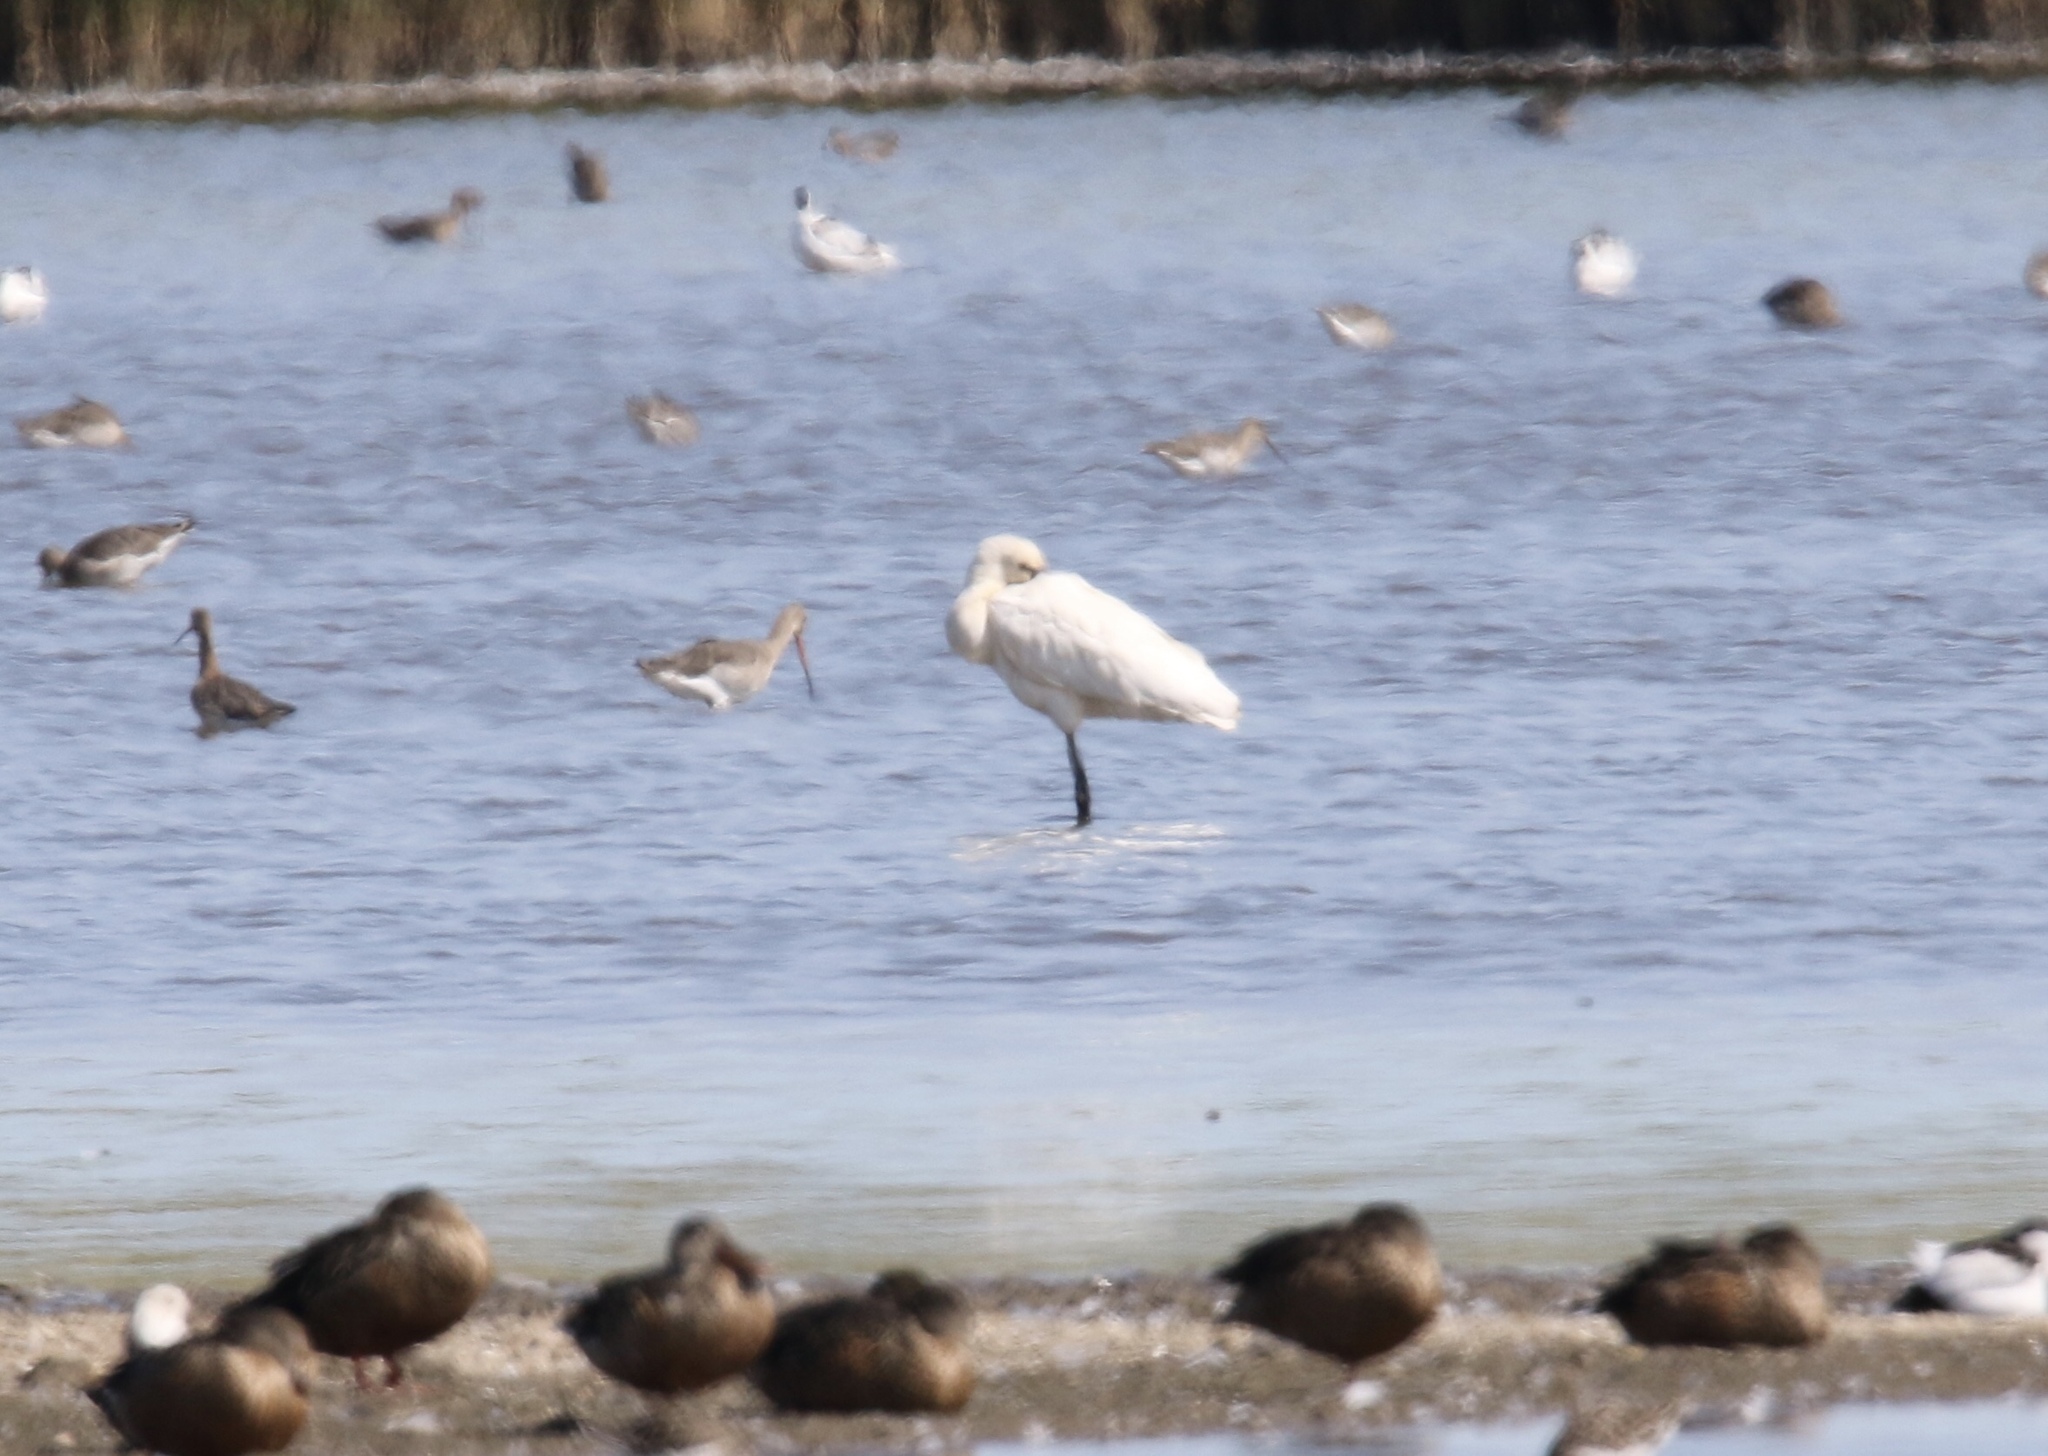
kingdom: Animalia
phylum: Chordata
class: Aves
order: Pelecaniformes
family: Threskiornithidae
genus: Platalea
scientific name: Platalea leucorodia
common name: Eurasian spoonbill
